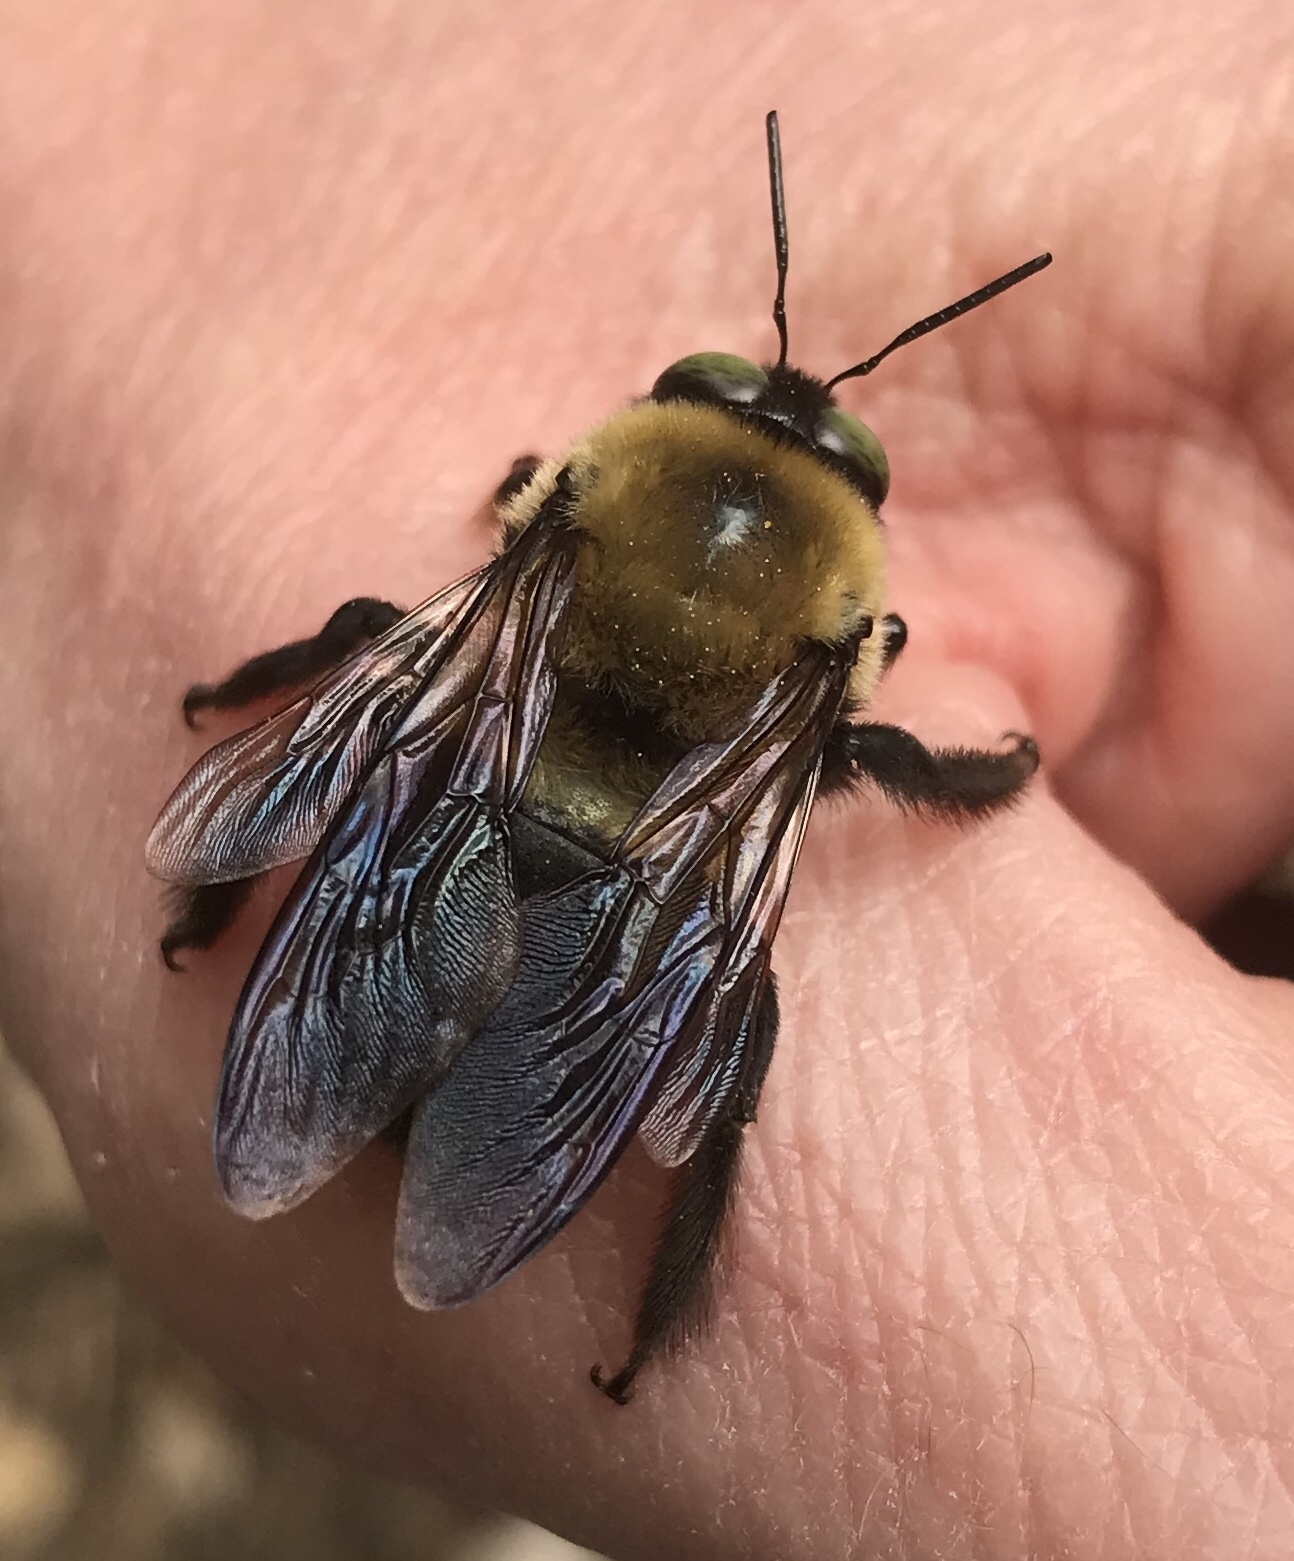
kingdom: Animalia
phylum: Arthropoda
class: Insecta
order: Hymenoptera
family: Apidae
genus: Xylocopa
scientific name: Xylocopa virginica
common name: Carpenter bee
